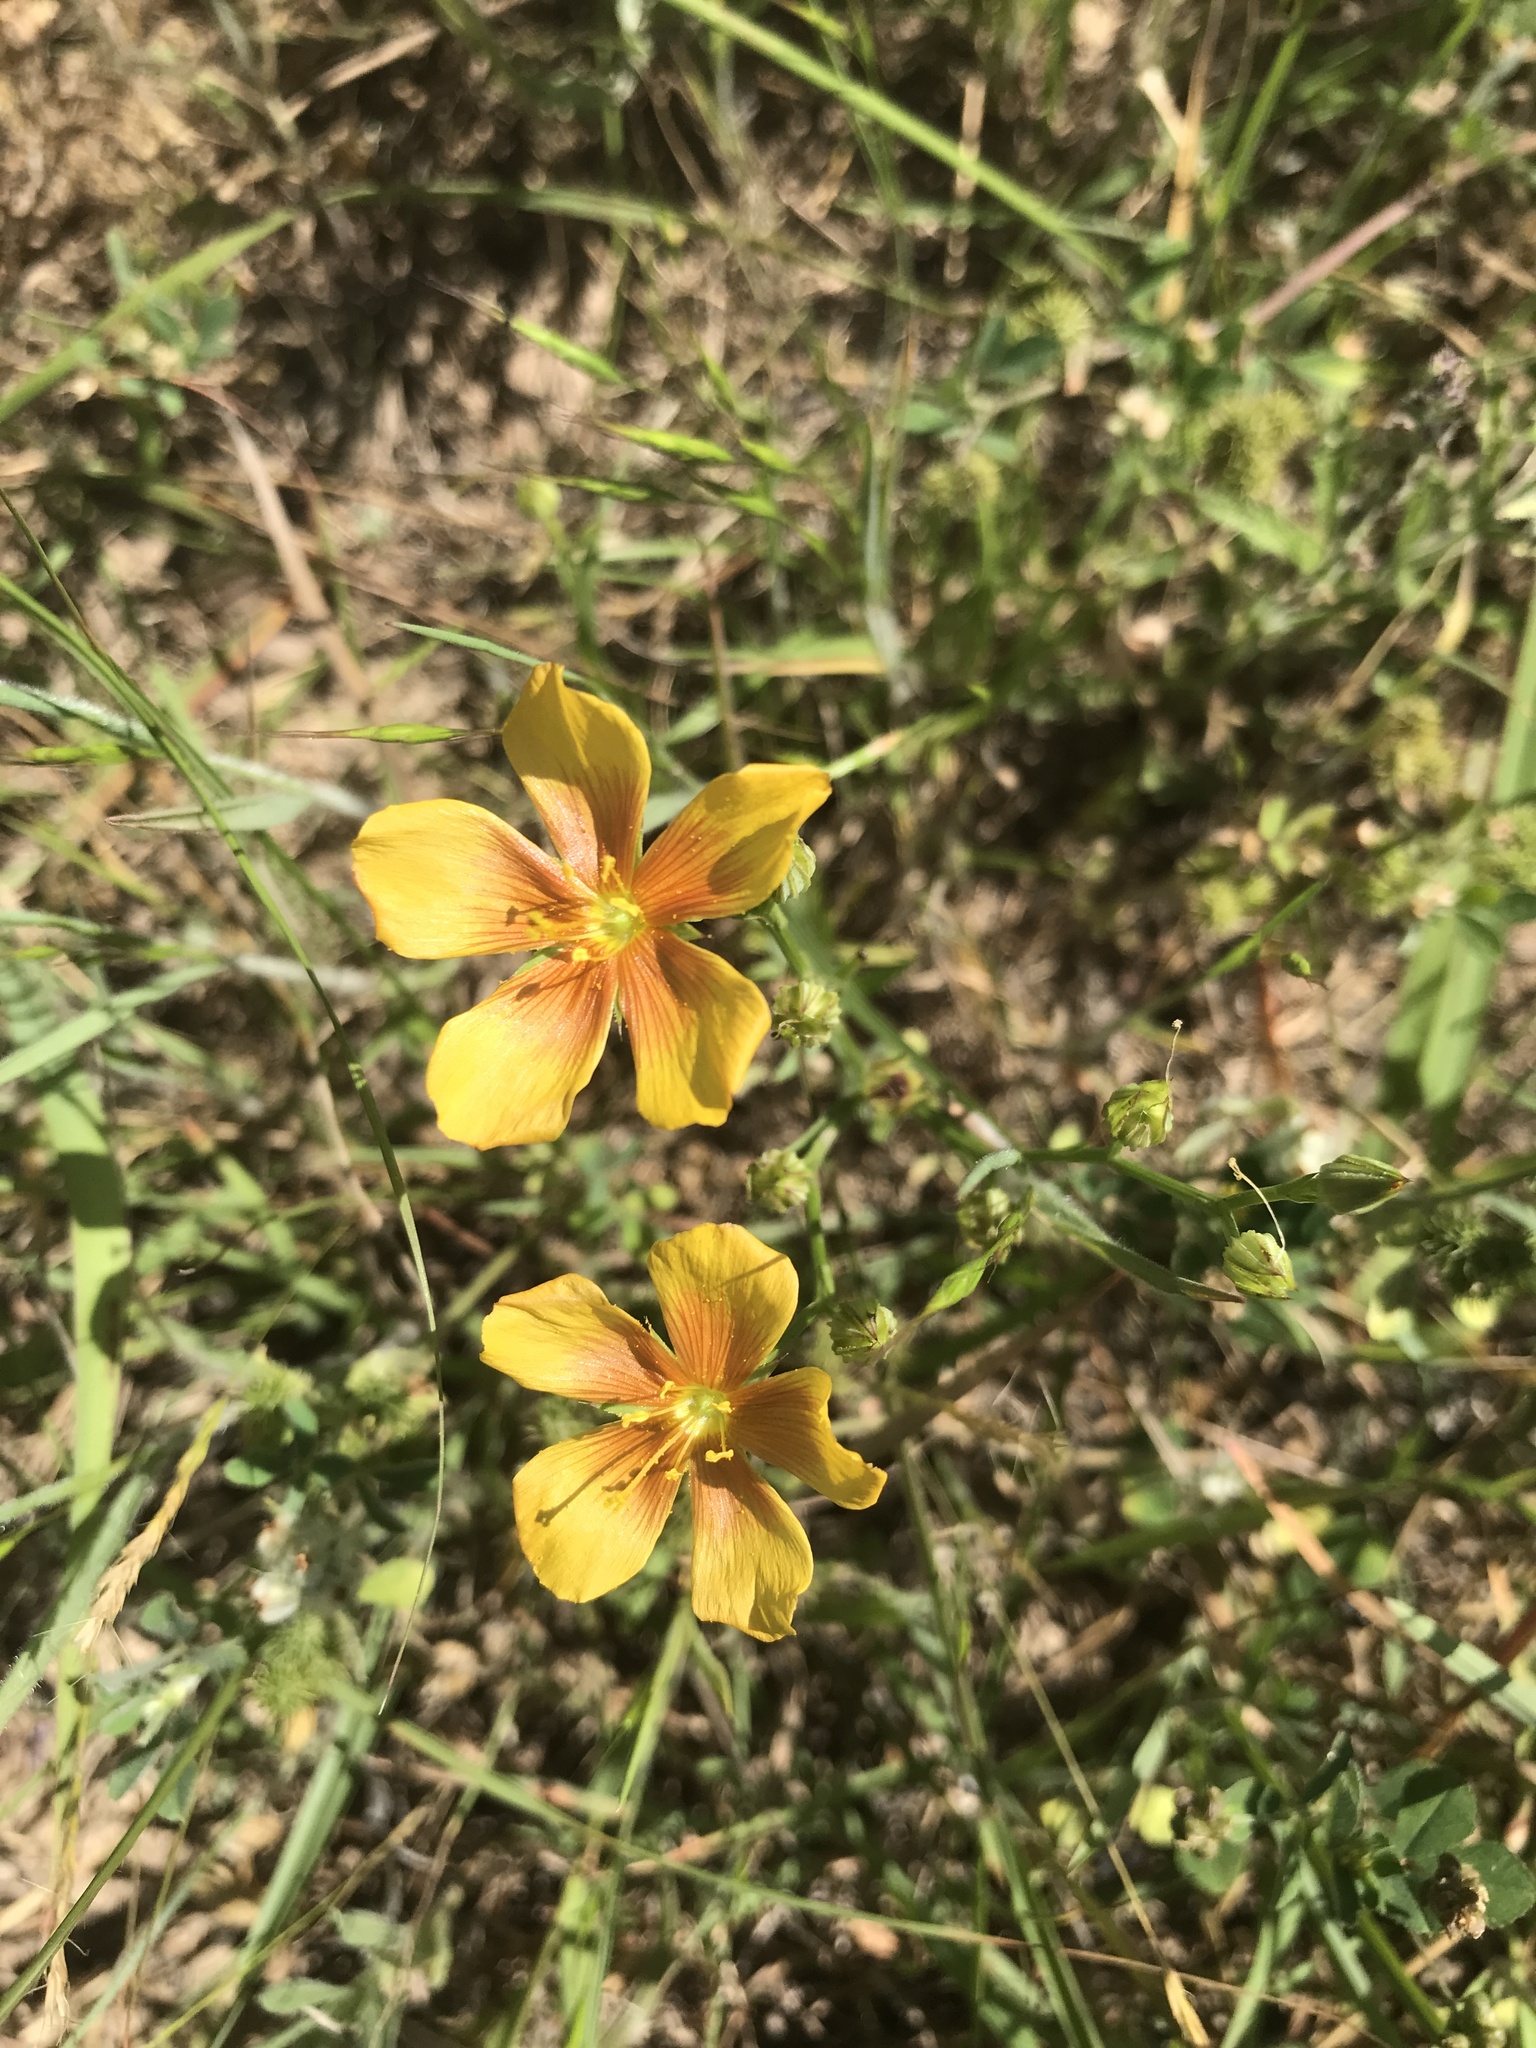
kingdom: Plantae
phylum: Tracheophyta
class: Magnoliopsida
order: Malpighiales
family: Linaceae
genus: Linum
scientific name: Linum rigidum
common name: Stiff-stem flax
